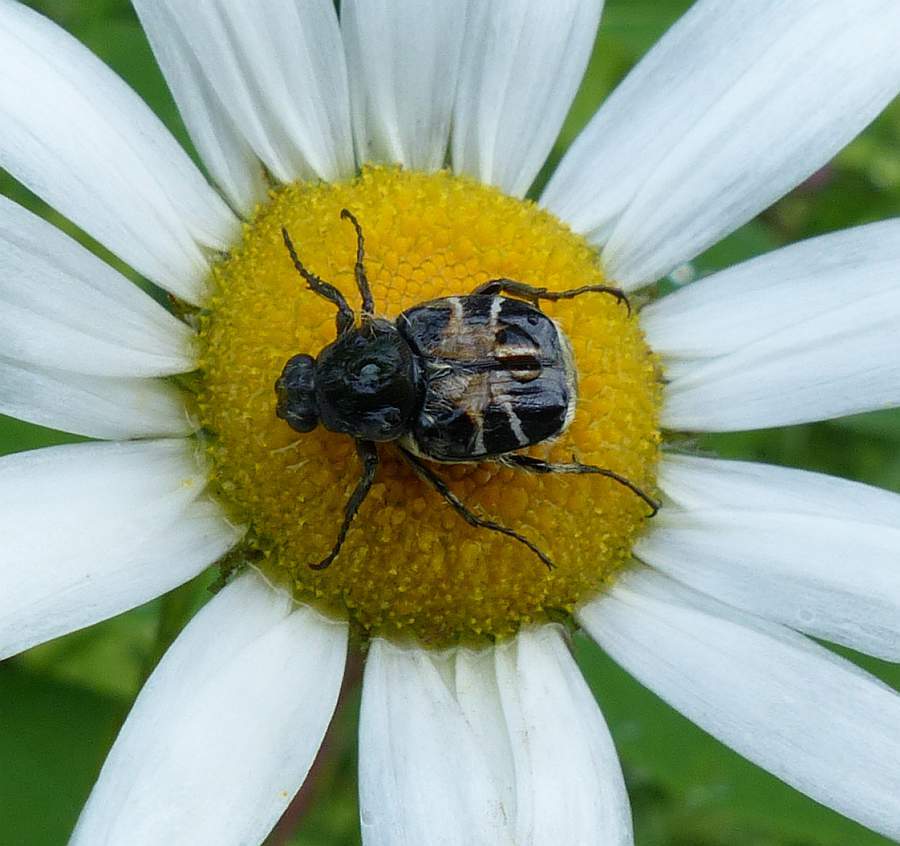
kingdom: Animalia
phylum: Arthropoda
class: Insecta
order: Coleoptera
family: Scarabaeidae
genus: Trichiotinus
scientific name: Trichiotinus assimilis
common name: Bee-mimic beetle
